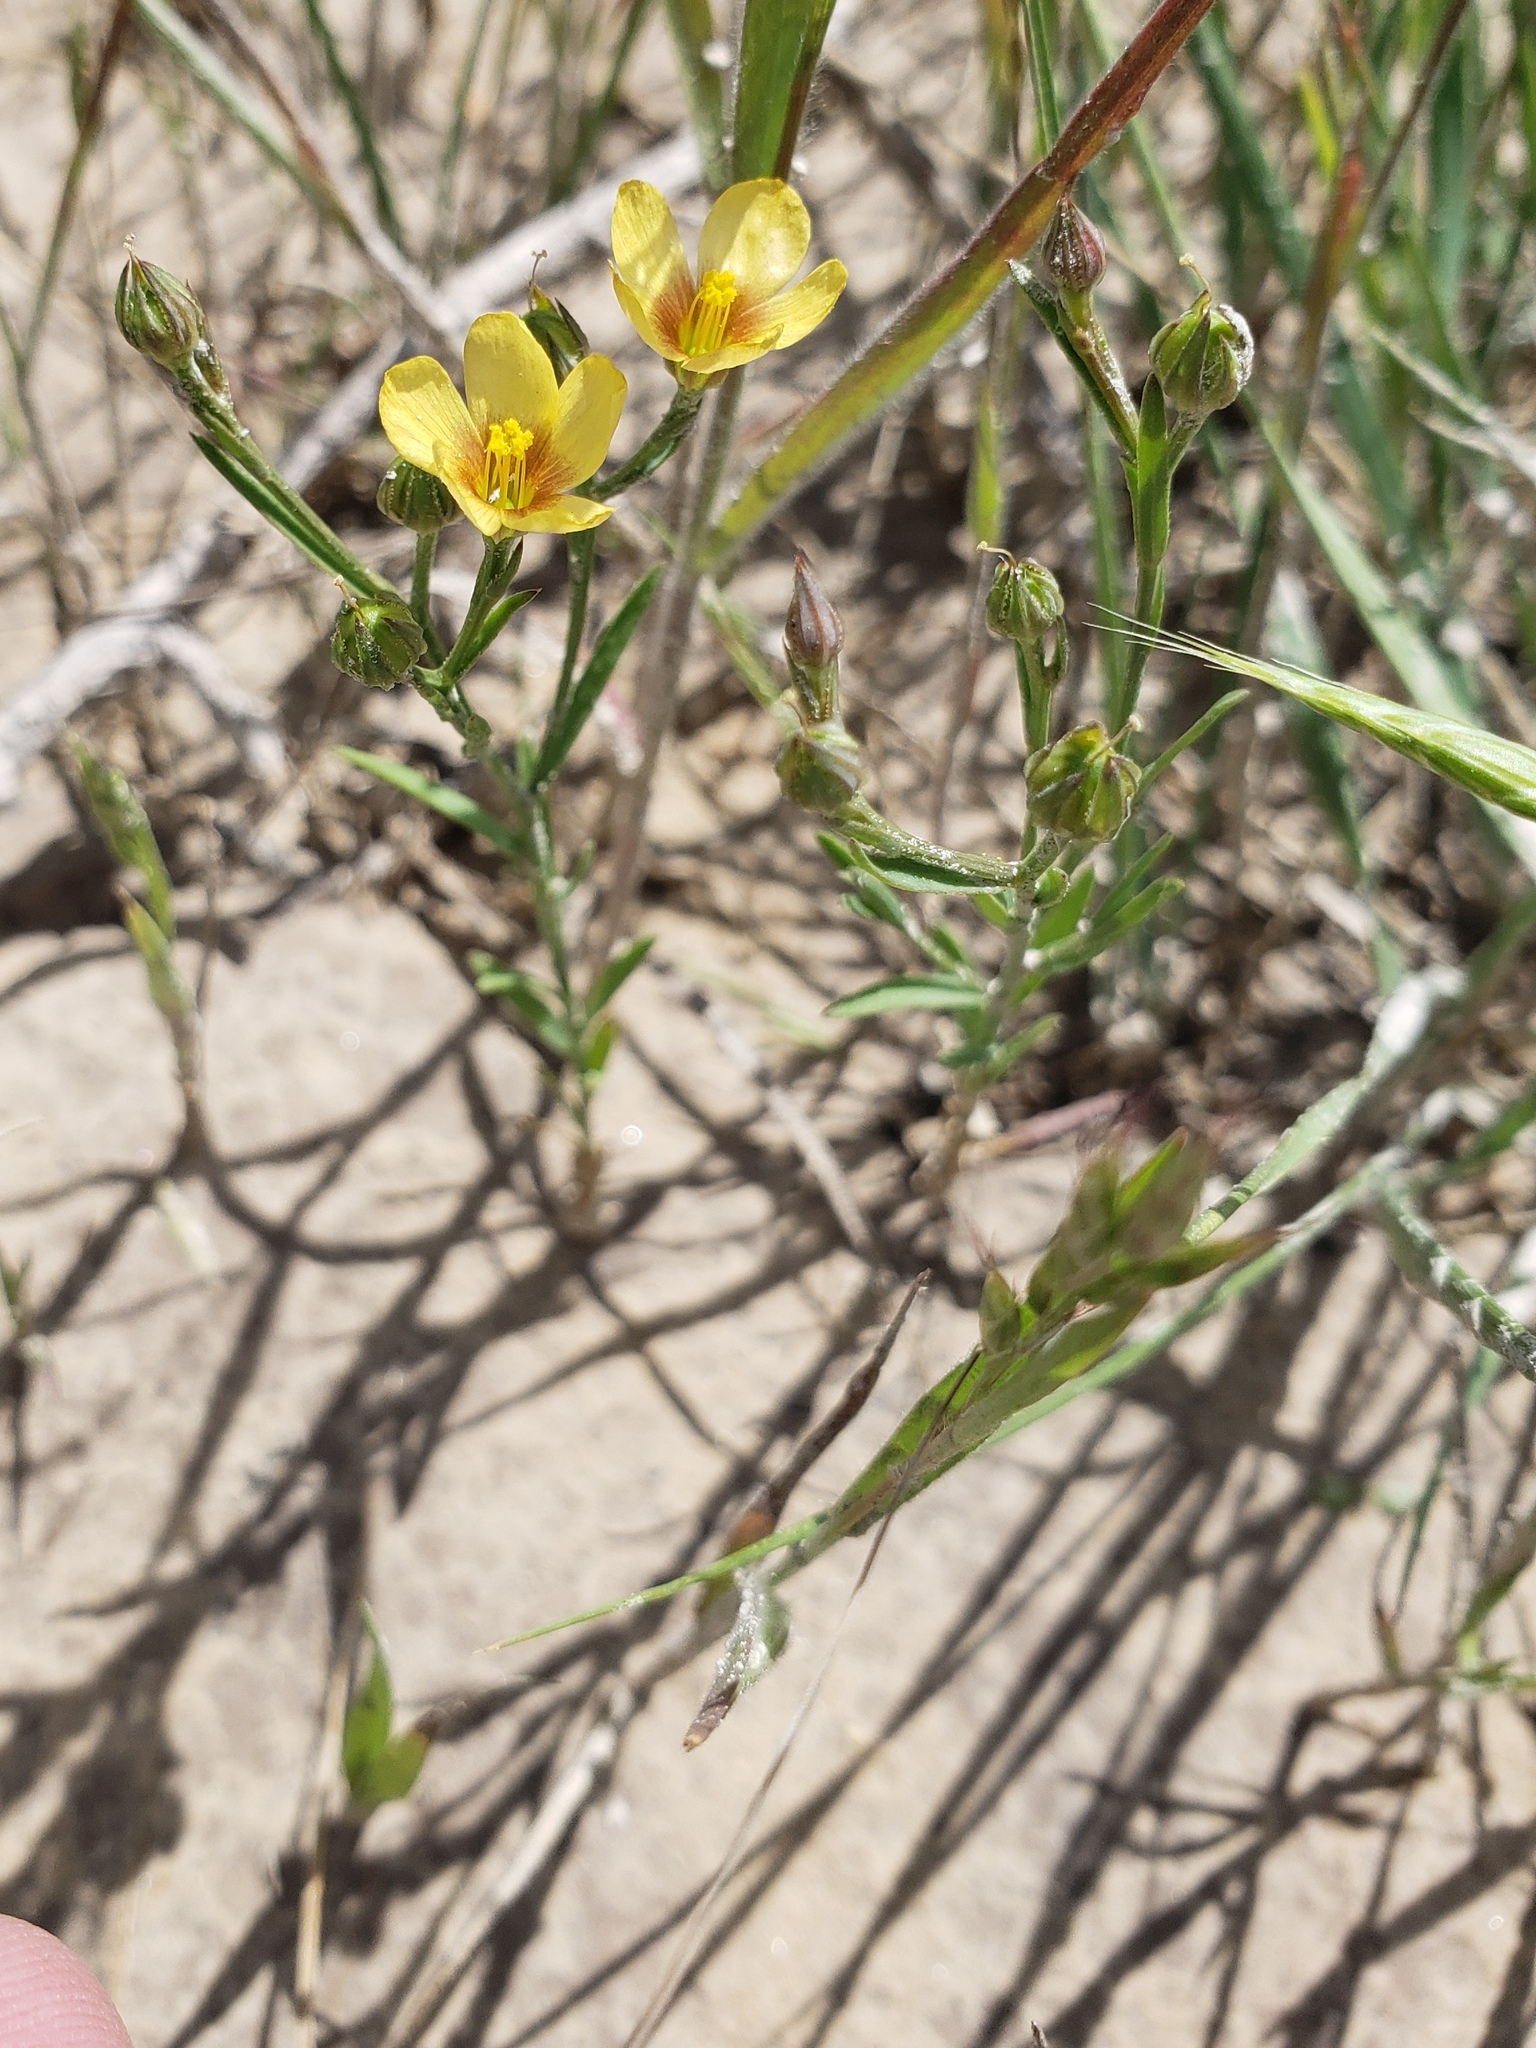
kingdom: Plantae
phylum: Tracheophyta
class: Magnoliopsida
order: Malpighiales
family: Linaceae
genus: Linum
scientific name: Linum rigidum
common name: Stiff-stem flax
